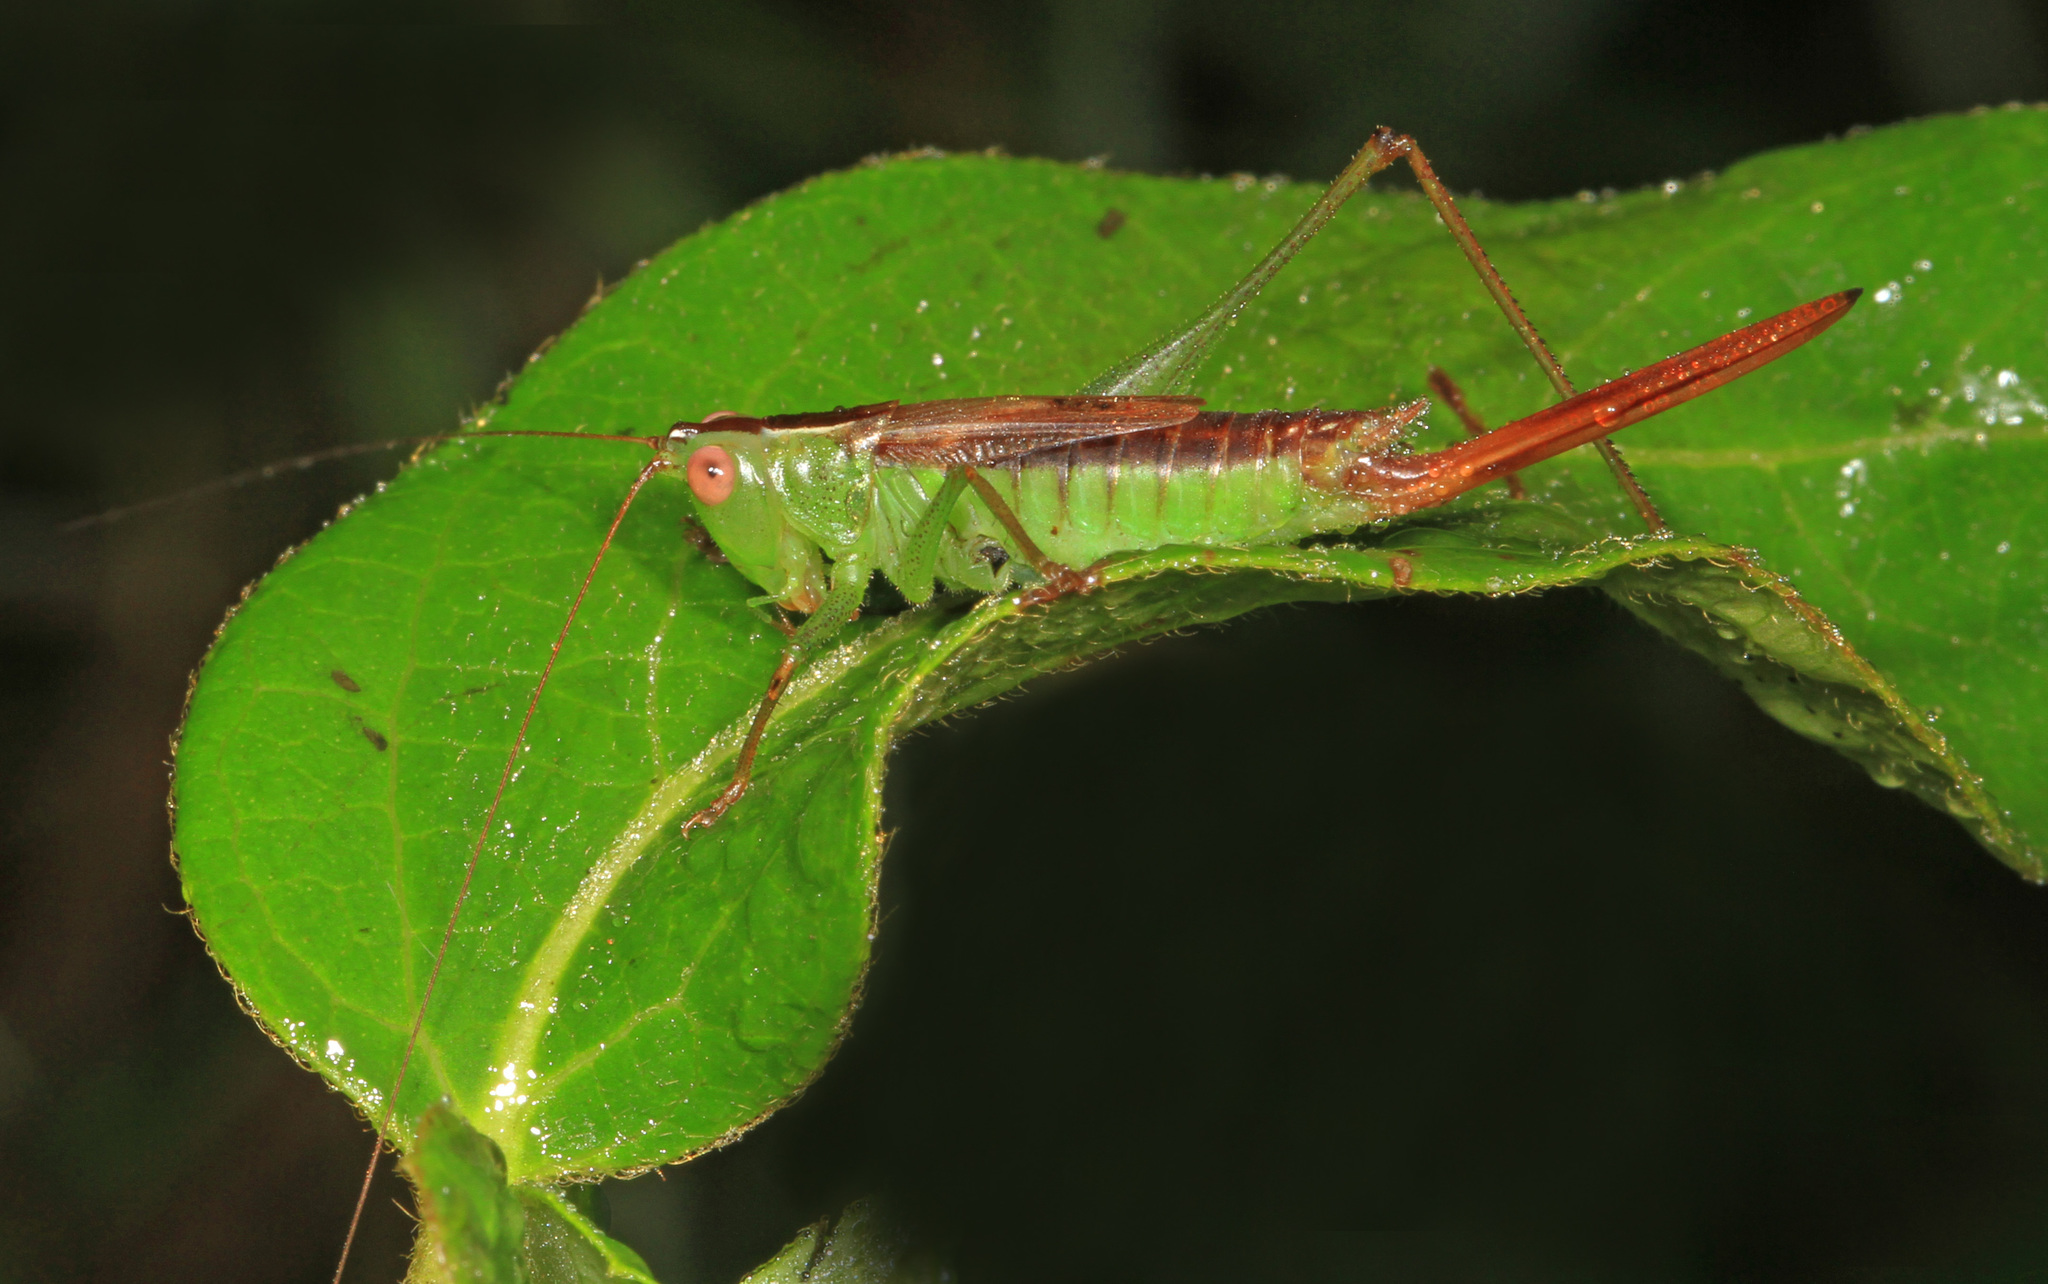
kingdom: Animalia
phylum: Arthropoda
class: Insecta
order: Orthoptera
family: Tettigoniidae
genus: Conocephalus
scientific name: Conocephalus brevipennis
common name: Short-winged meadow katydid
